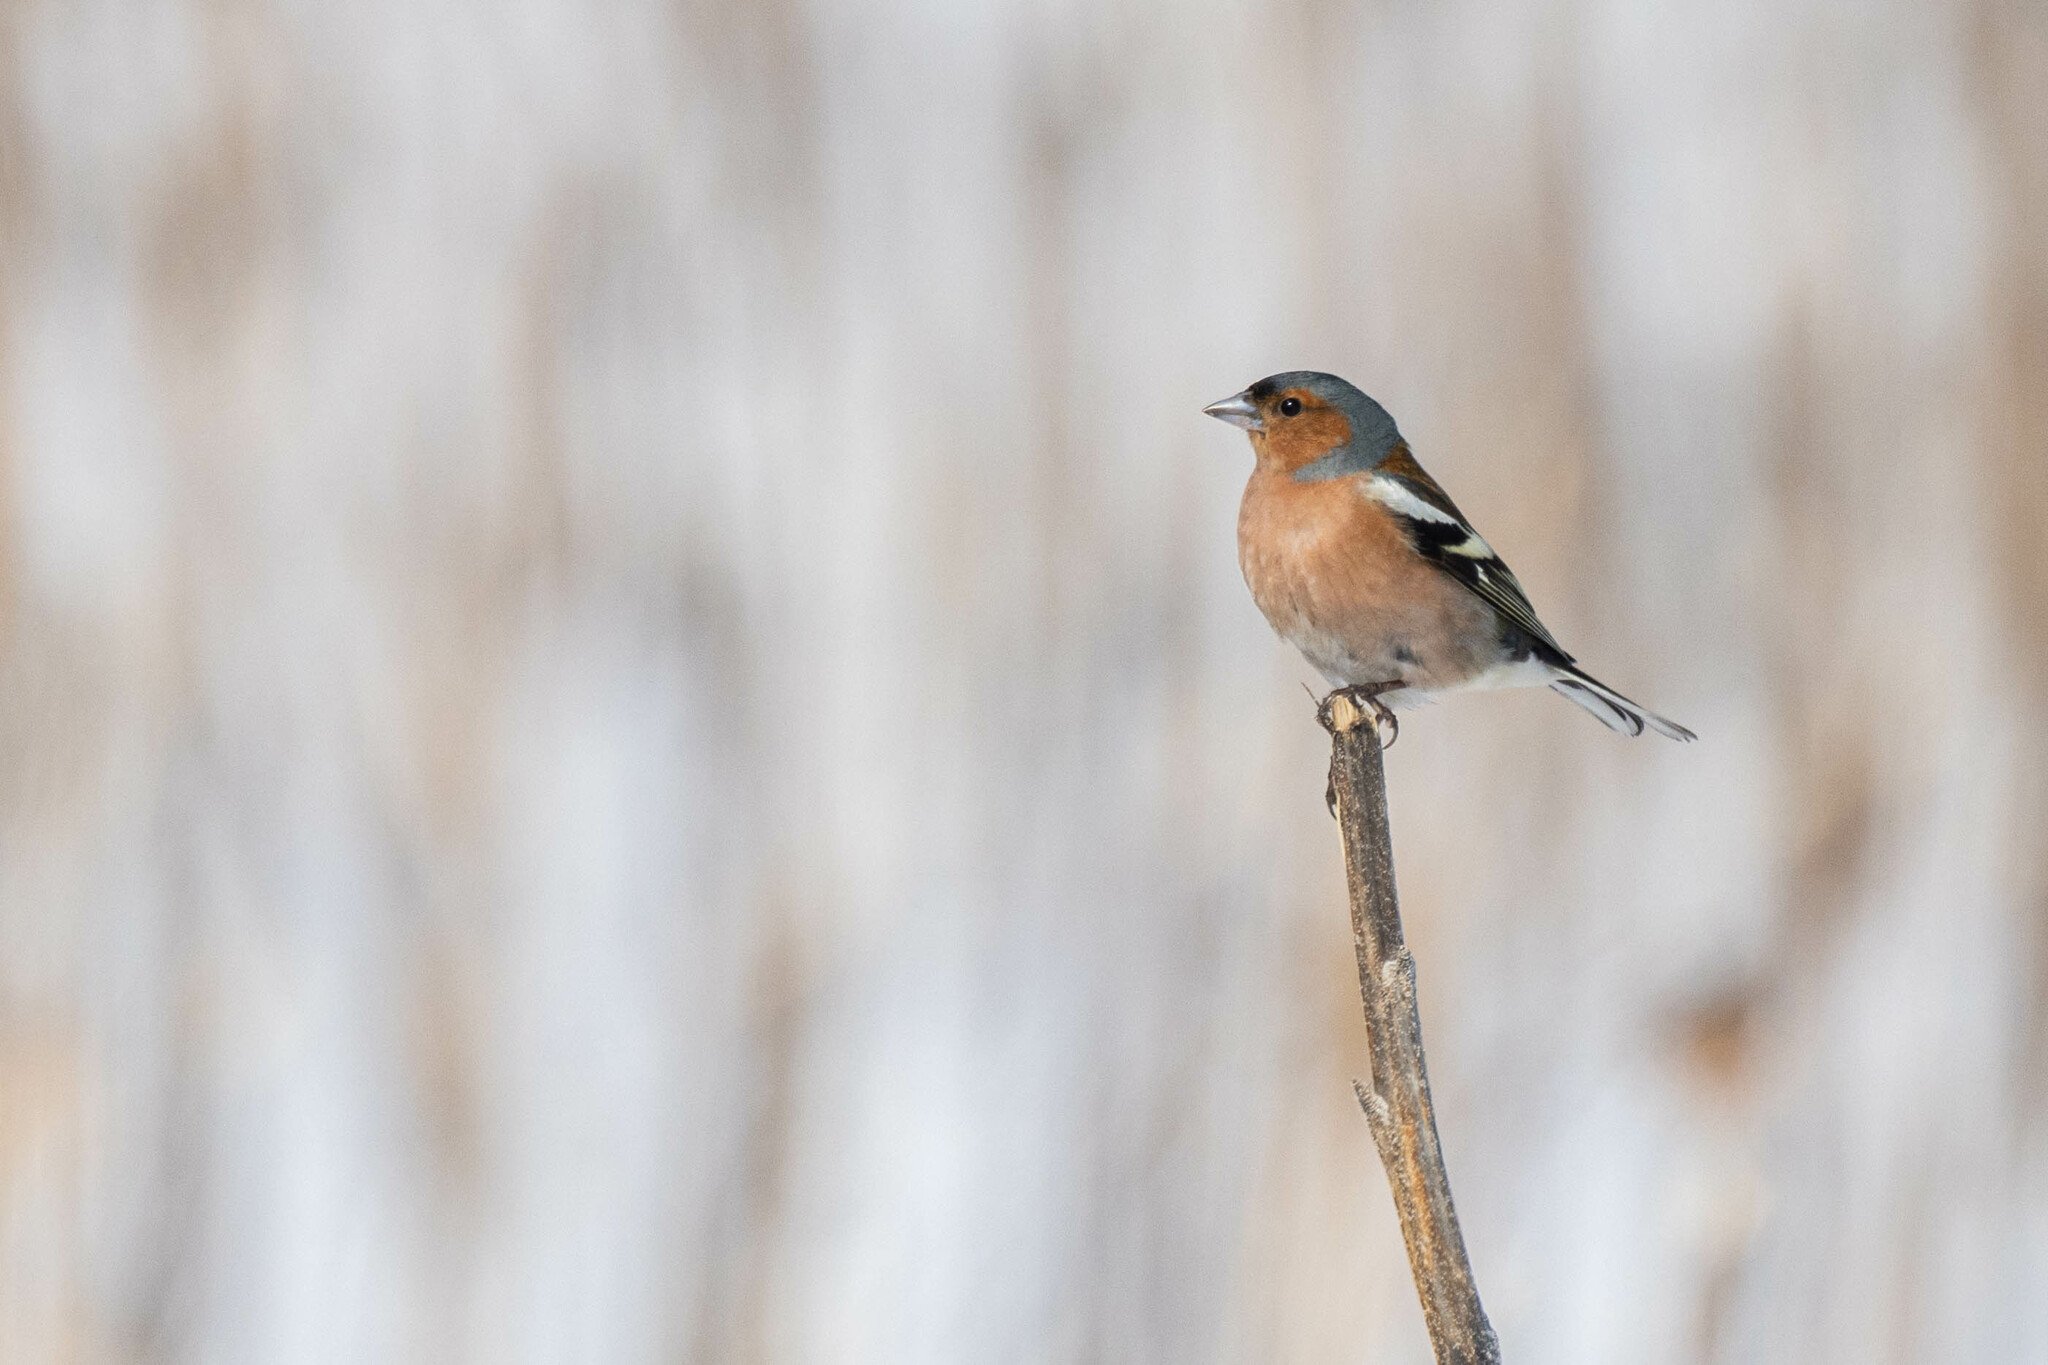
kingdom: Animalia
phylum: Chordata
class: Aves
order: Passeriformes
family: Fringillidae
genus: Fringilla
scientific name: Fringilla coelebs
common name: Common chaffinch
